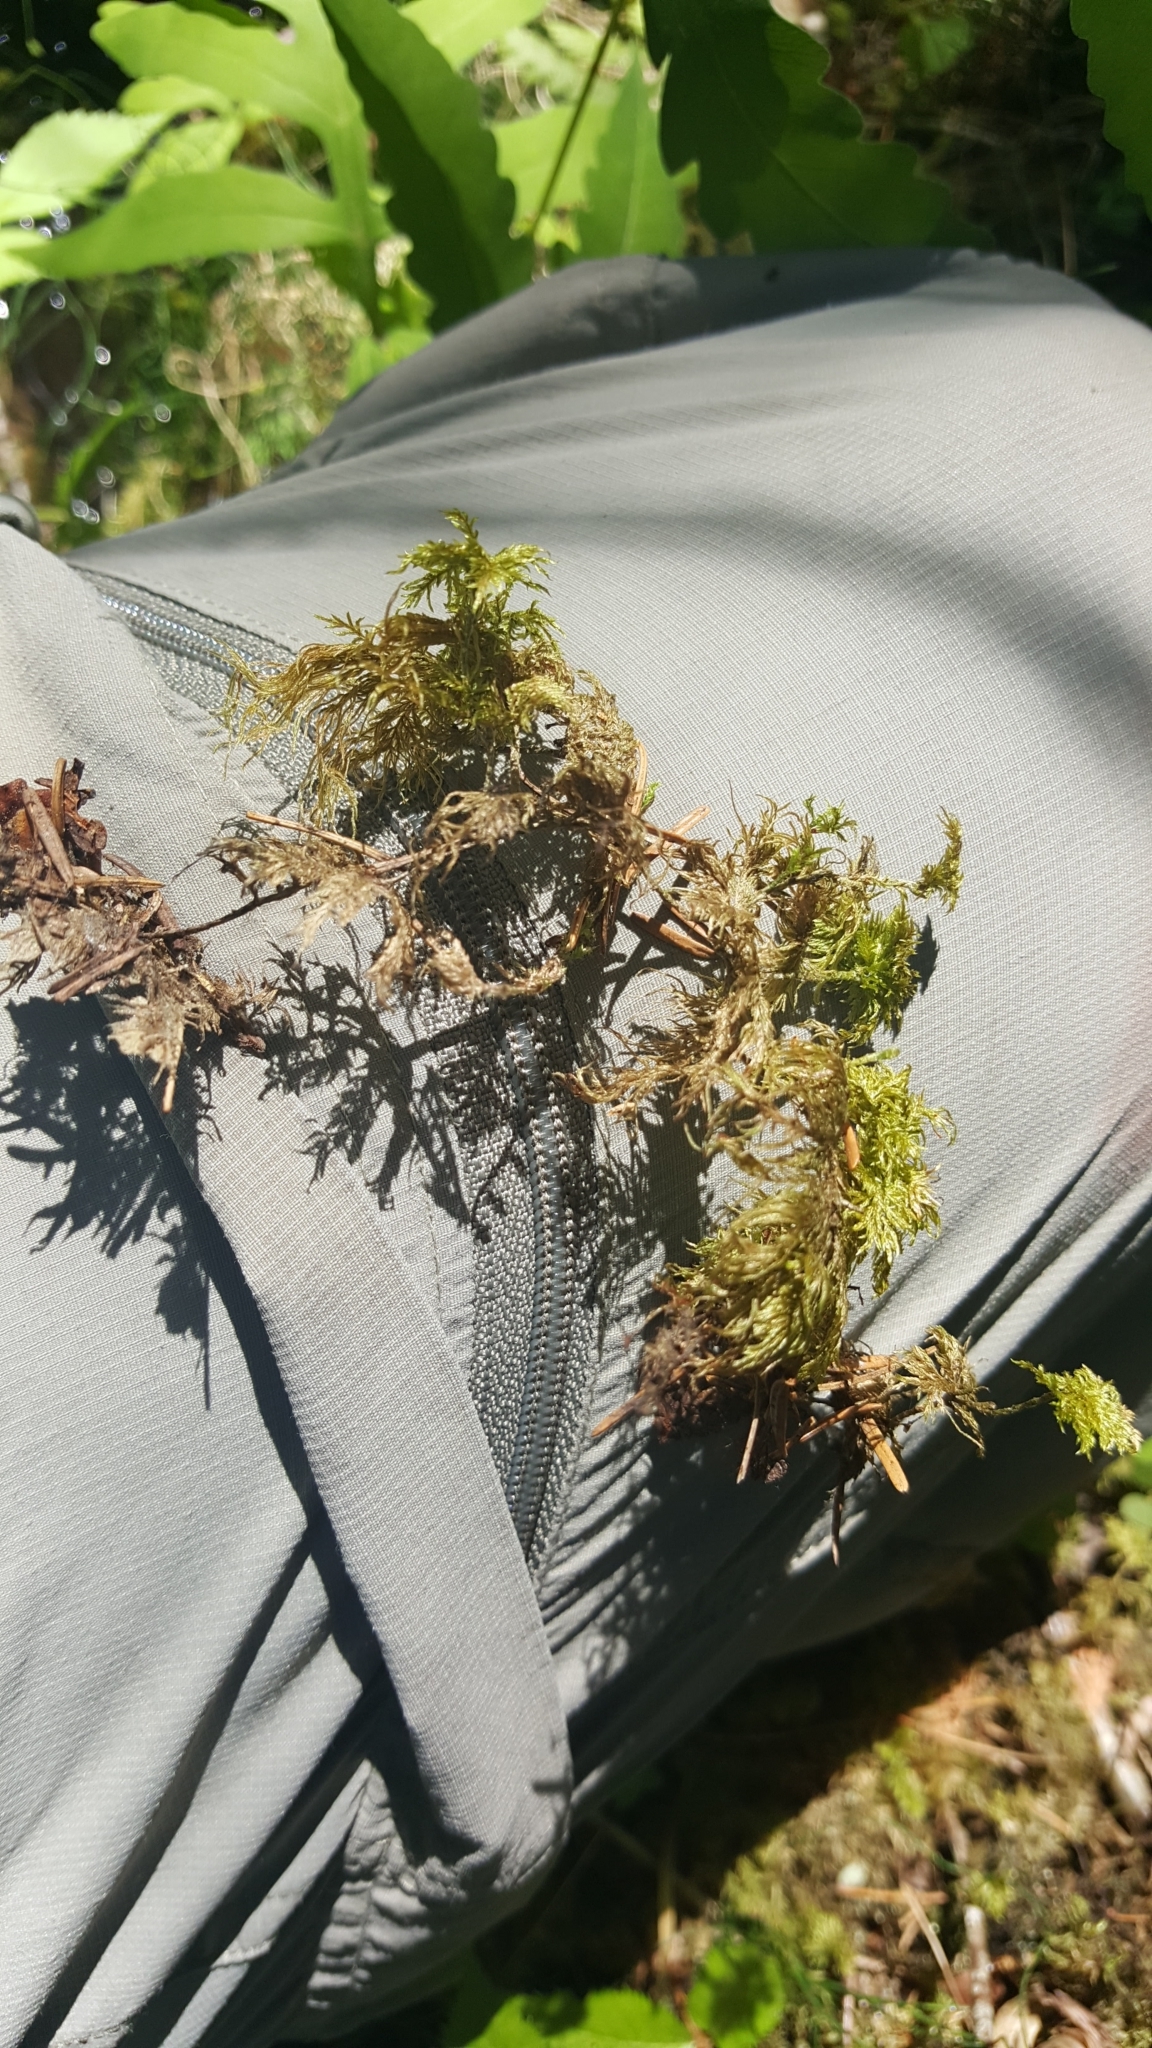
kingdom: Plantae
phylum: Bryophyta
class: Bryopsida
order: Hypnales
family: Hylocomiaceae
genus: Hylocomium
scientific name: Hylocomium splendens
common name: Stairstep moss
